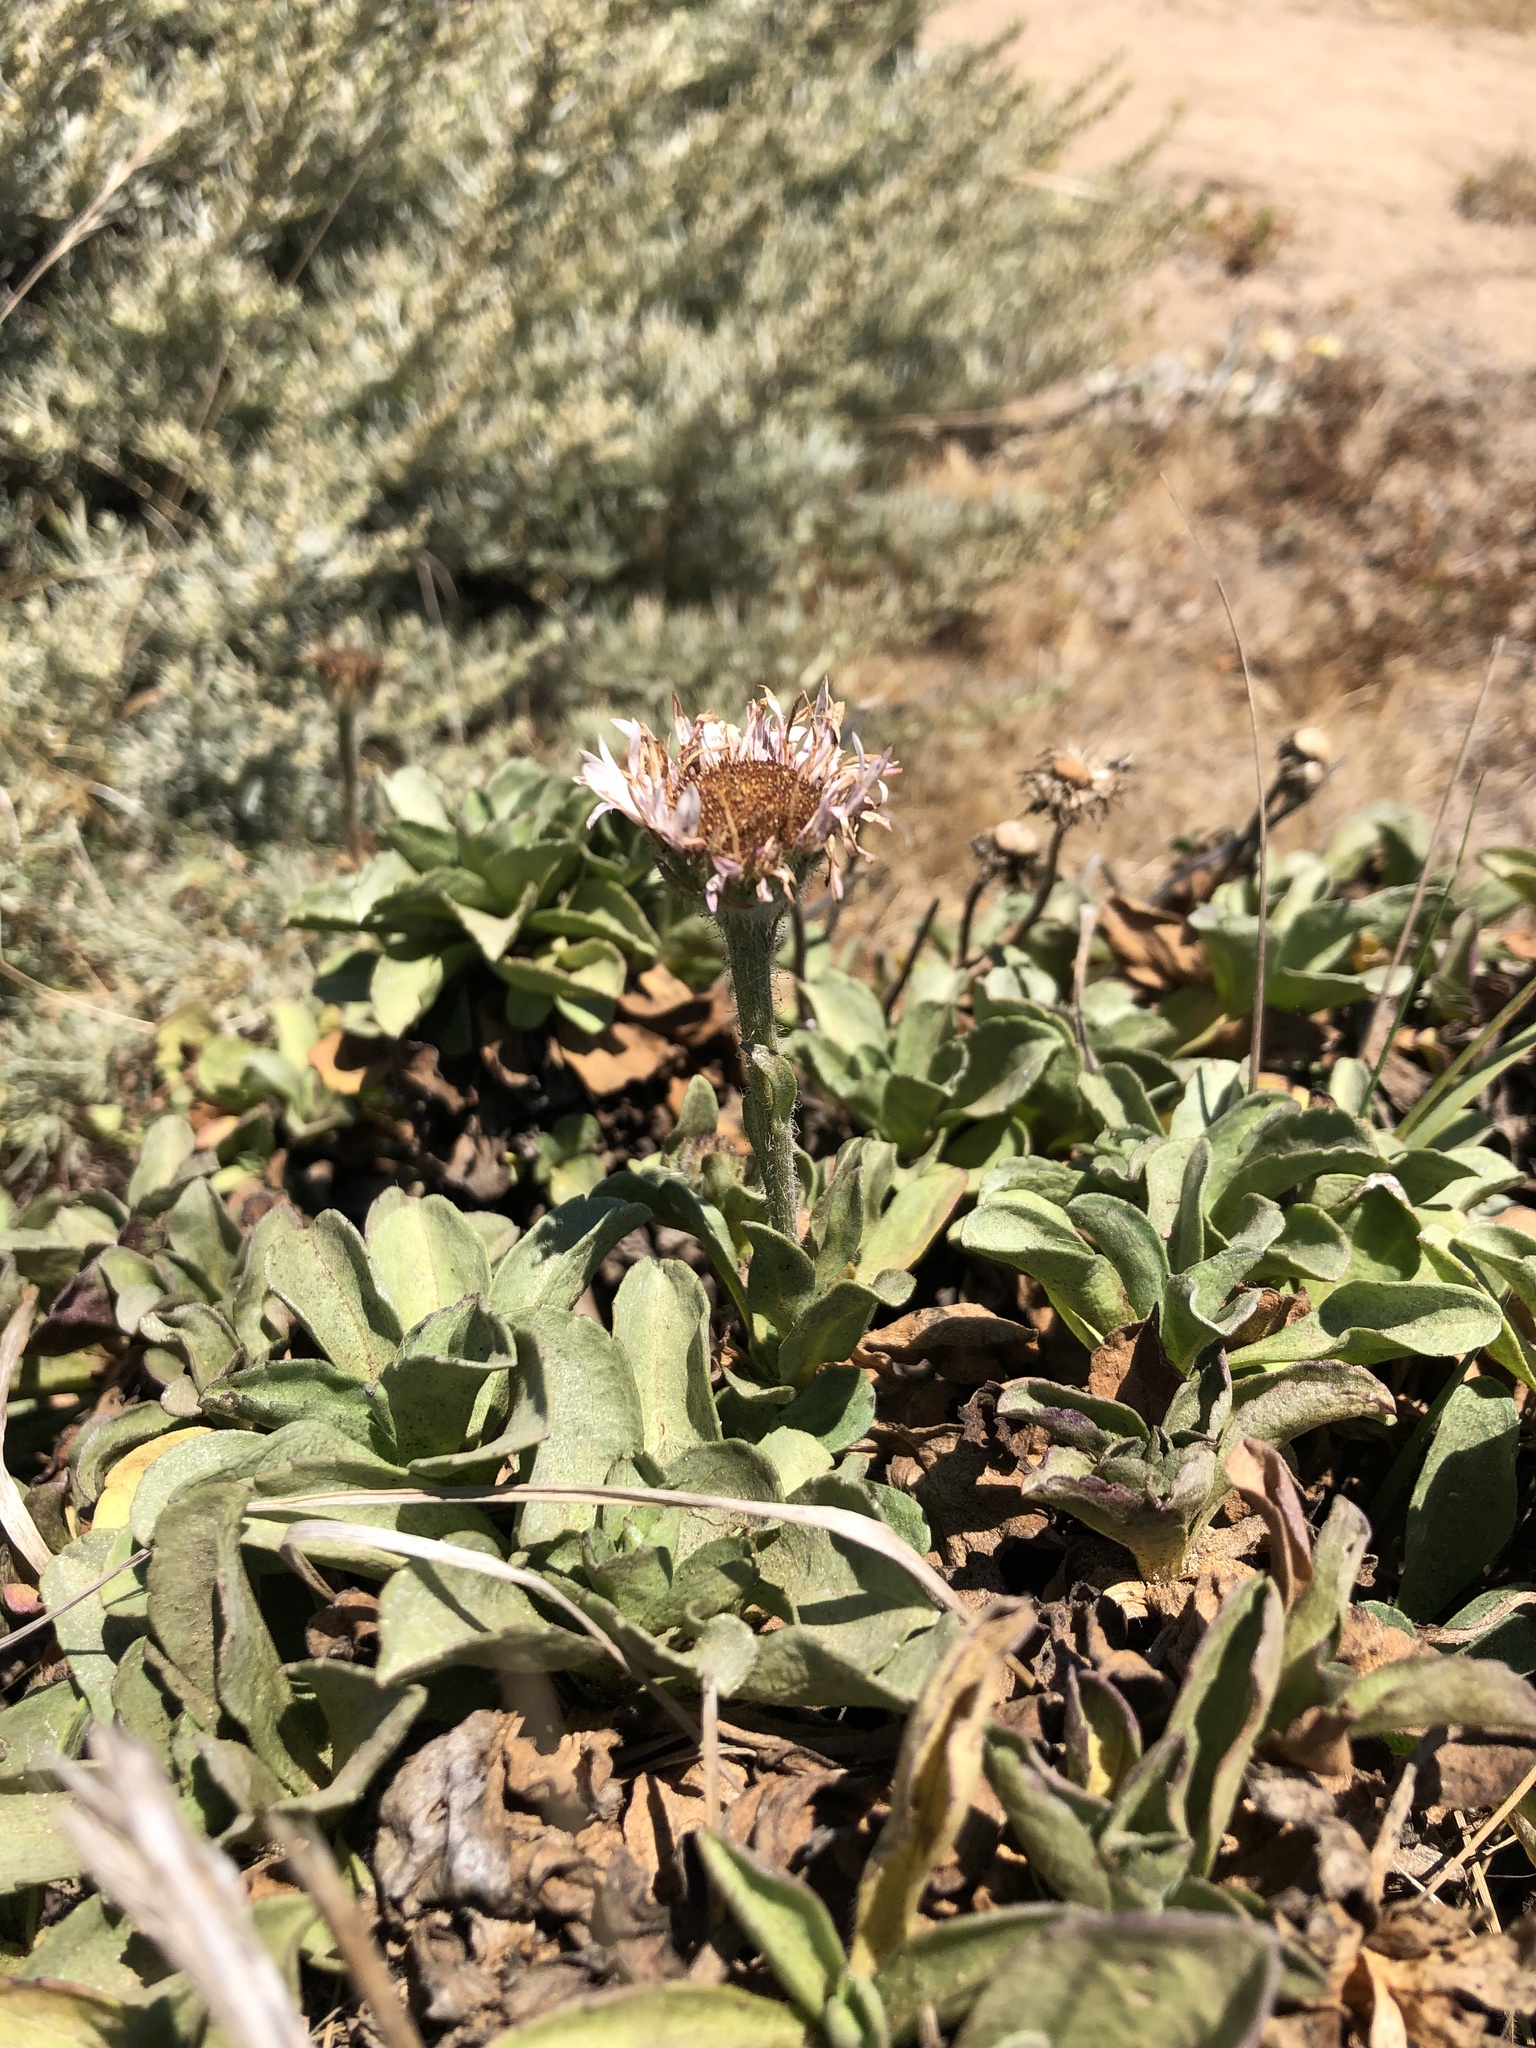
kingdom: Plantae
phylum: Tracheophyta
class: Magnoliopsida
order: Asterales
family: Asteraceae
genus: Erigeron
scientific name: Erigeron glaucus
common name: Seaside daisy
